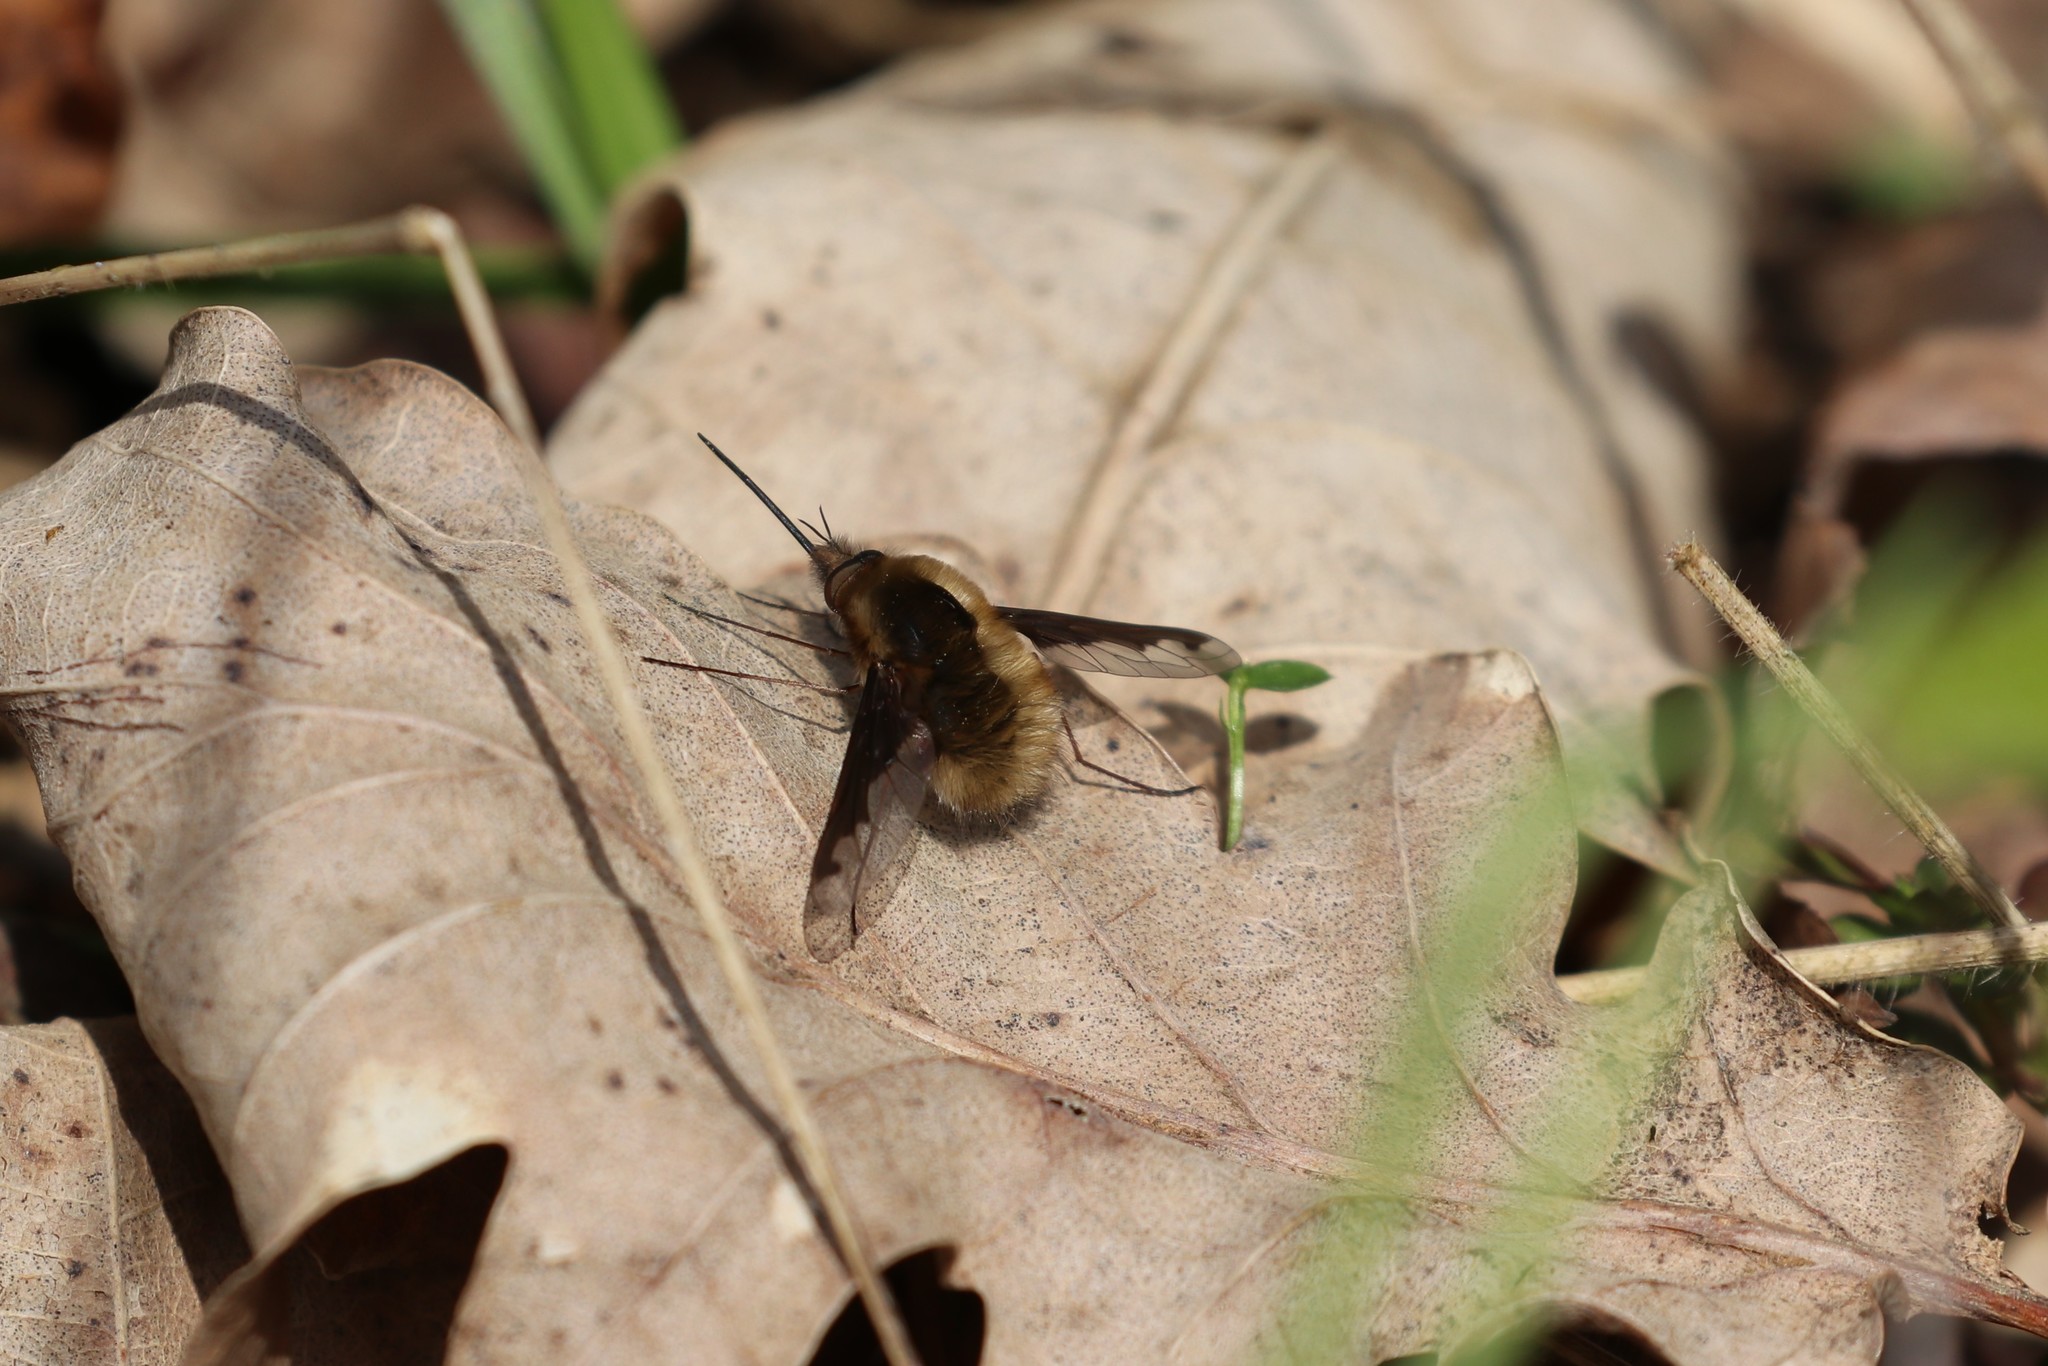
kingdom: Animalia
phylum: Arthropoda
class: Insecta
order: Diptera
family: Bombyliidae
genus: Bombylius
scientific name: Bombylius major
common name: Bee fly
